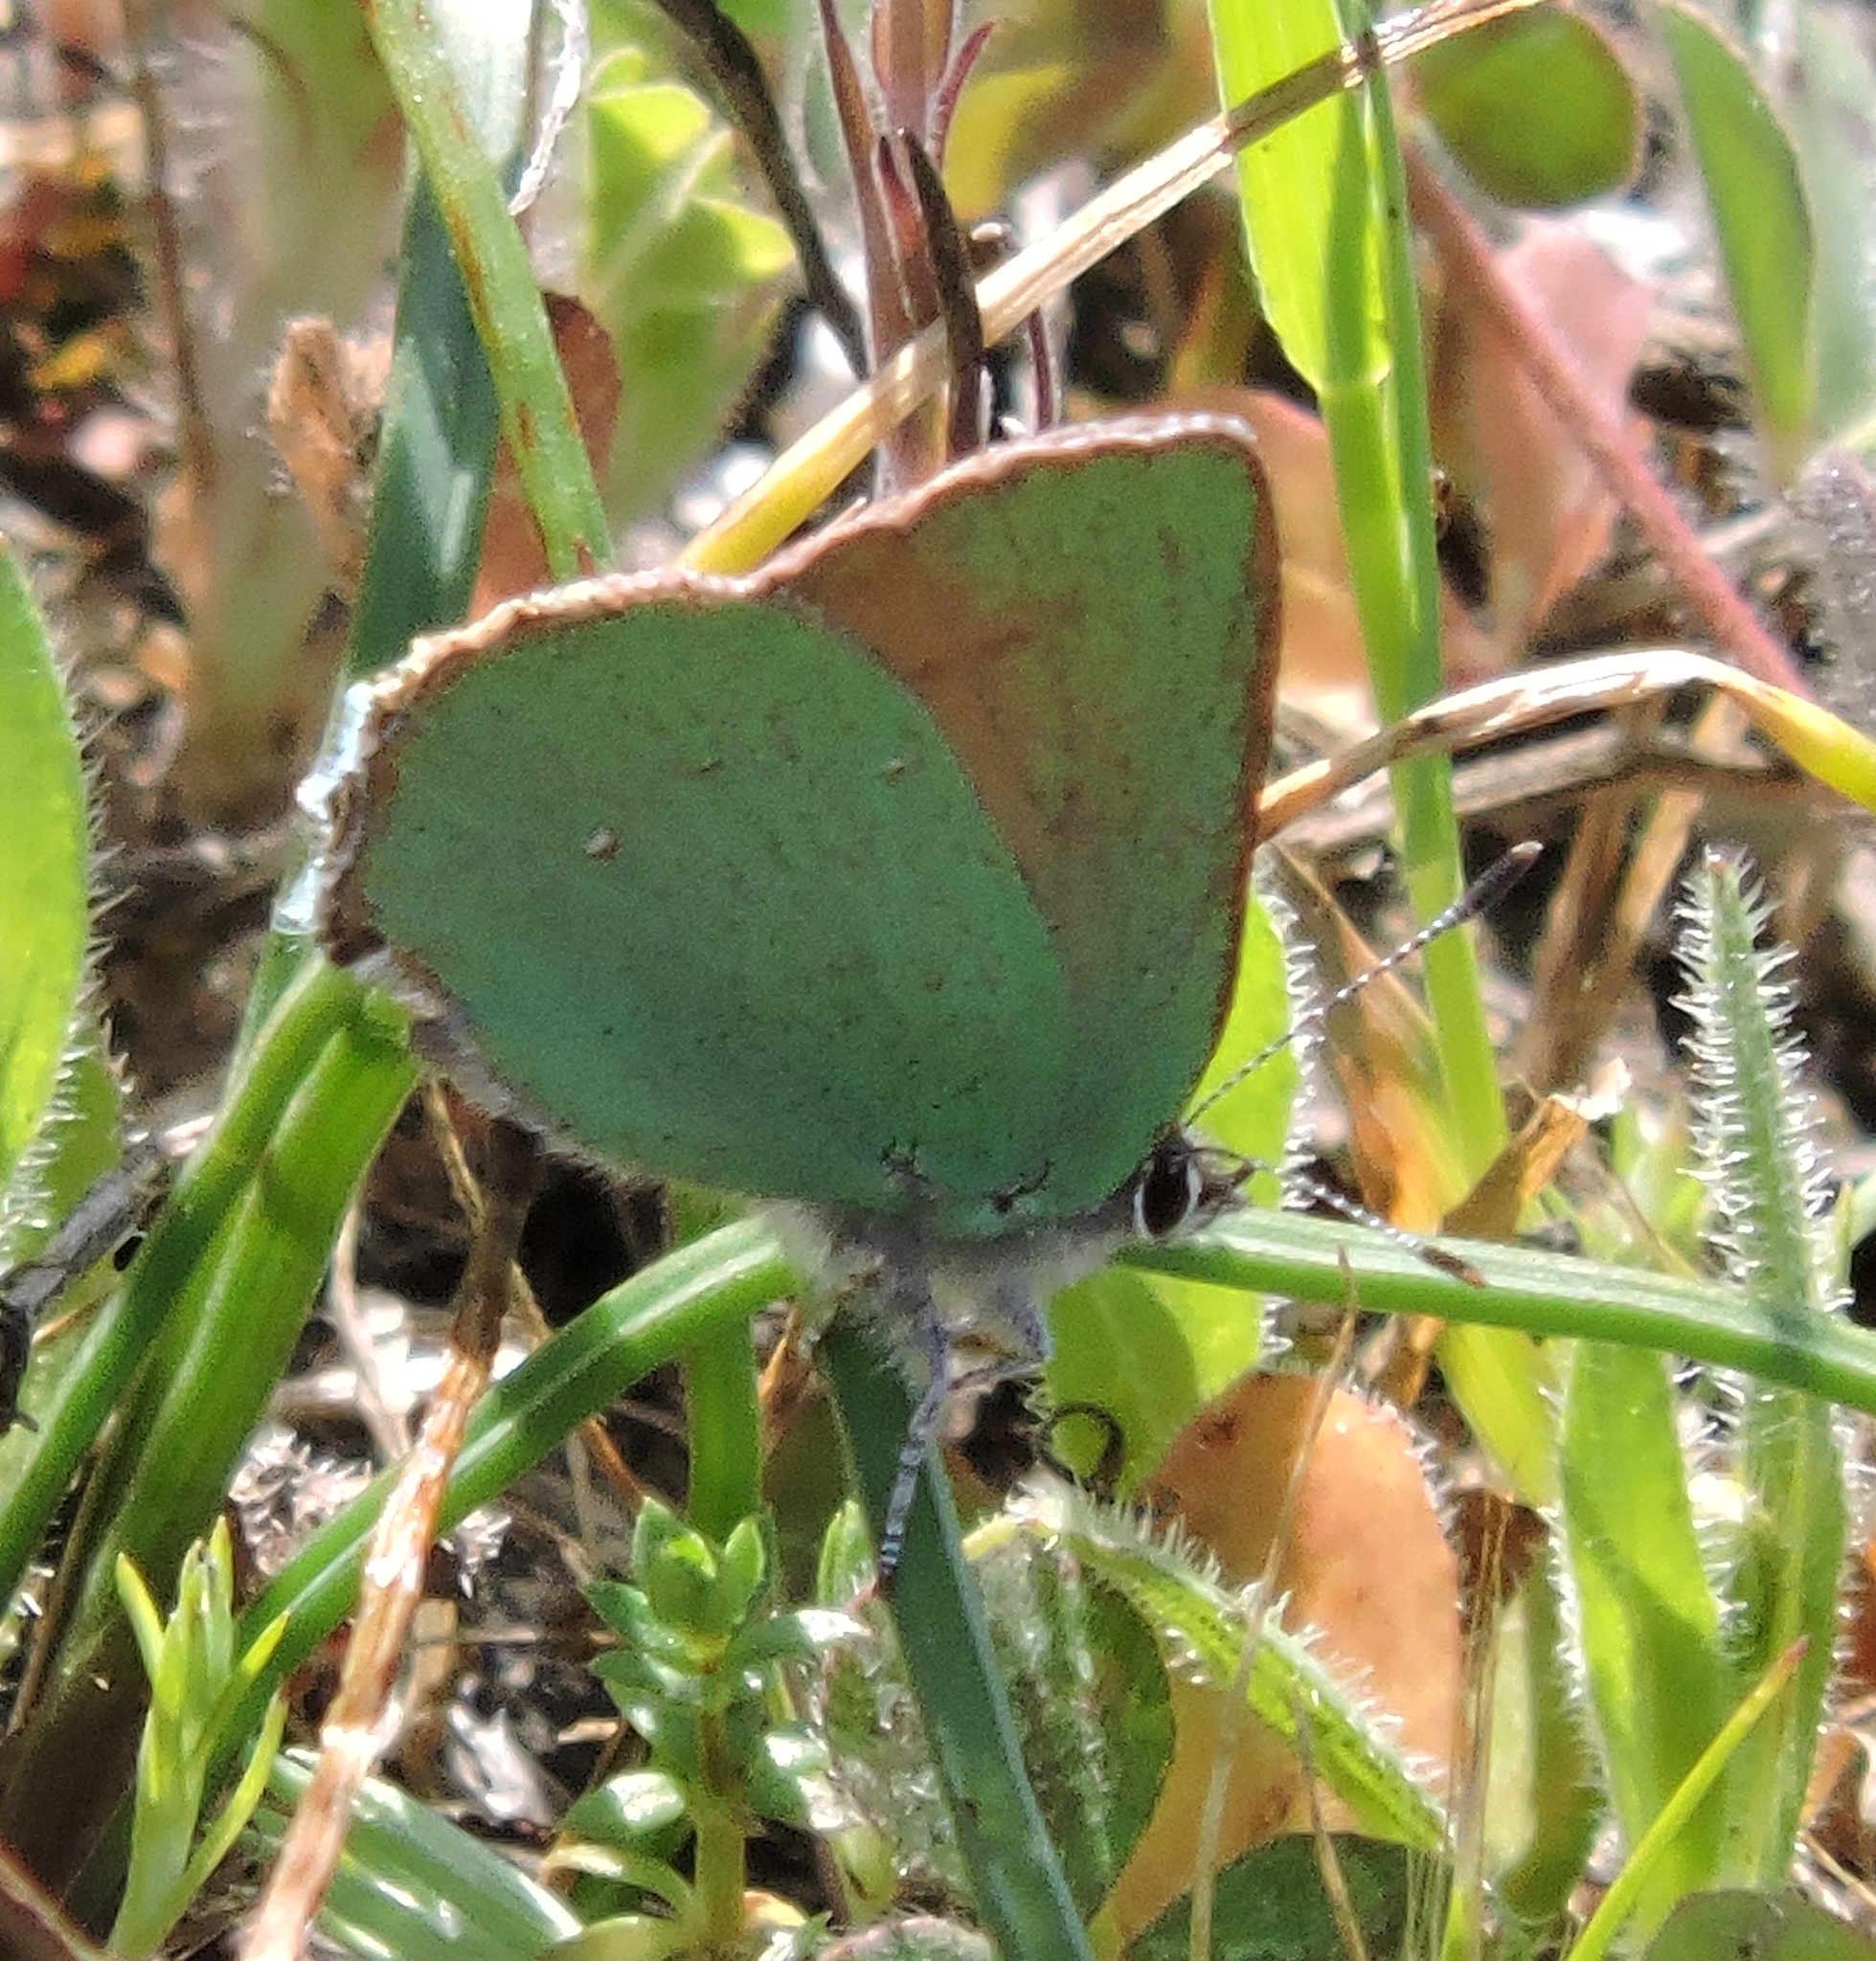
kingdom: Animalia
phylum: Arthropoda
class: Insecta
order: Lepidoptera
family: Lycaenidae
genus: Callophrys
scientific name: Callophrys dumetorum
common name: Bramble hairstreak
